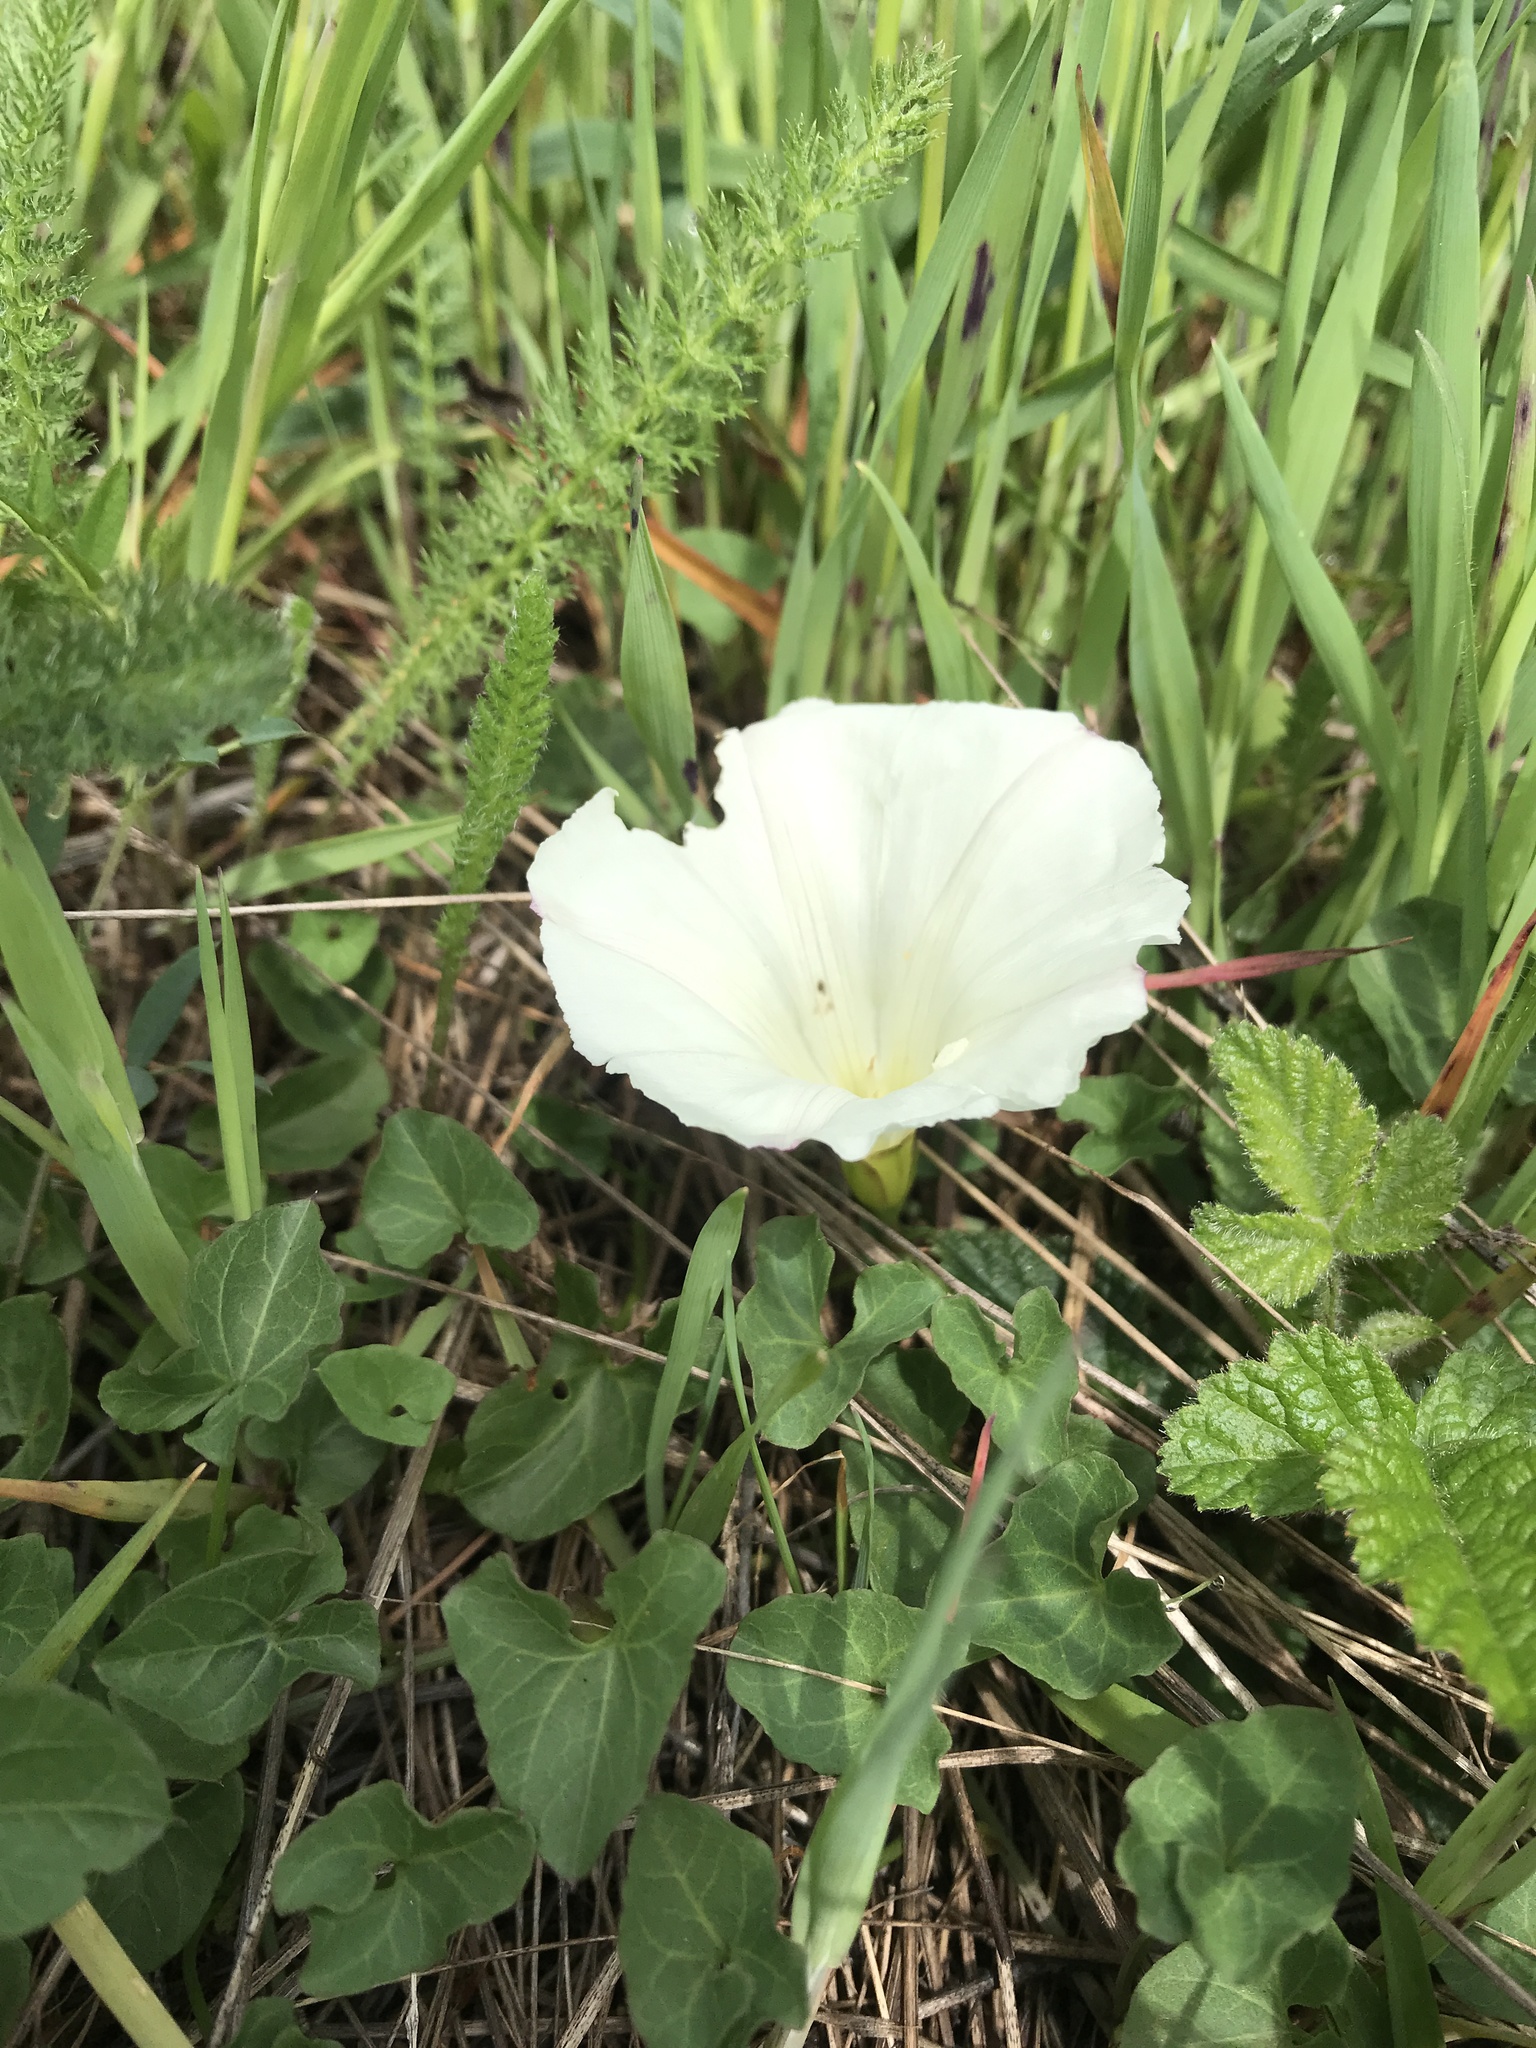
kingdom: Plantae
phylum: Tracheophyta
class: Magnoliopsida
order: Solanales
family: Convolvulaceae
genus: Calystegia
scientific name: Calystegia purpurata
